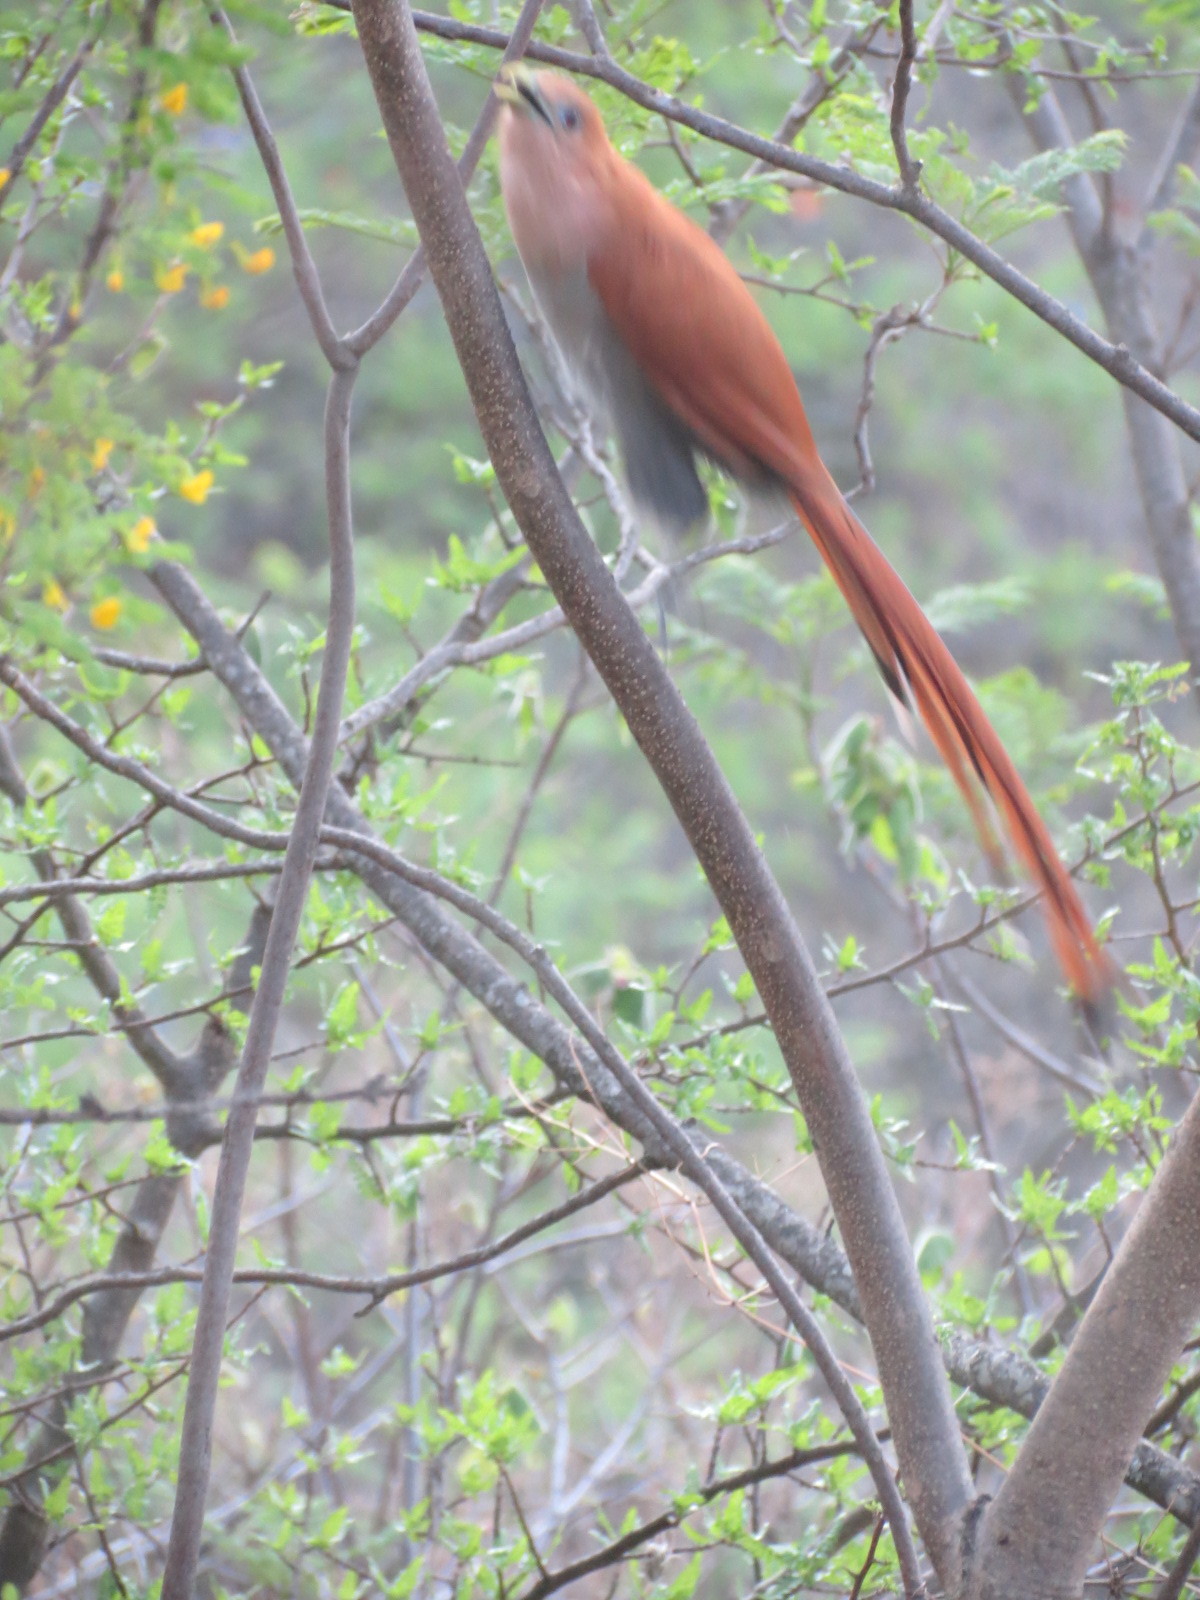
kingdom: Animalia
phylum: Chordata
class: Aves
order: Cuculiformes
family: Cuculidae
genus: Piaya
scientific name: Piaya cayana
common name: Squirrel cuckoo
